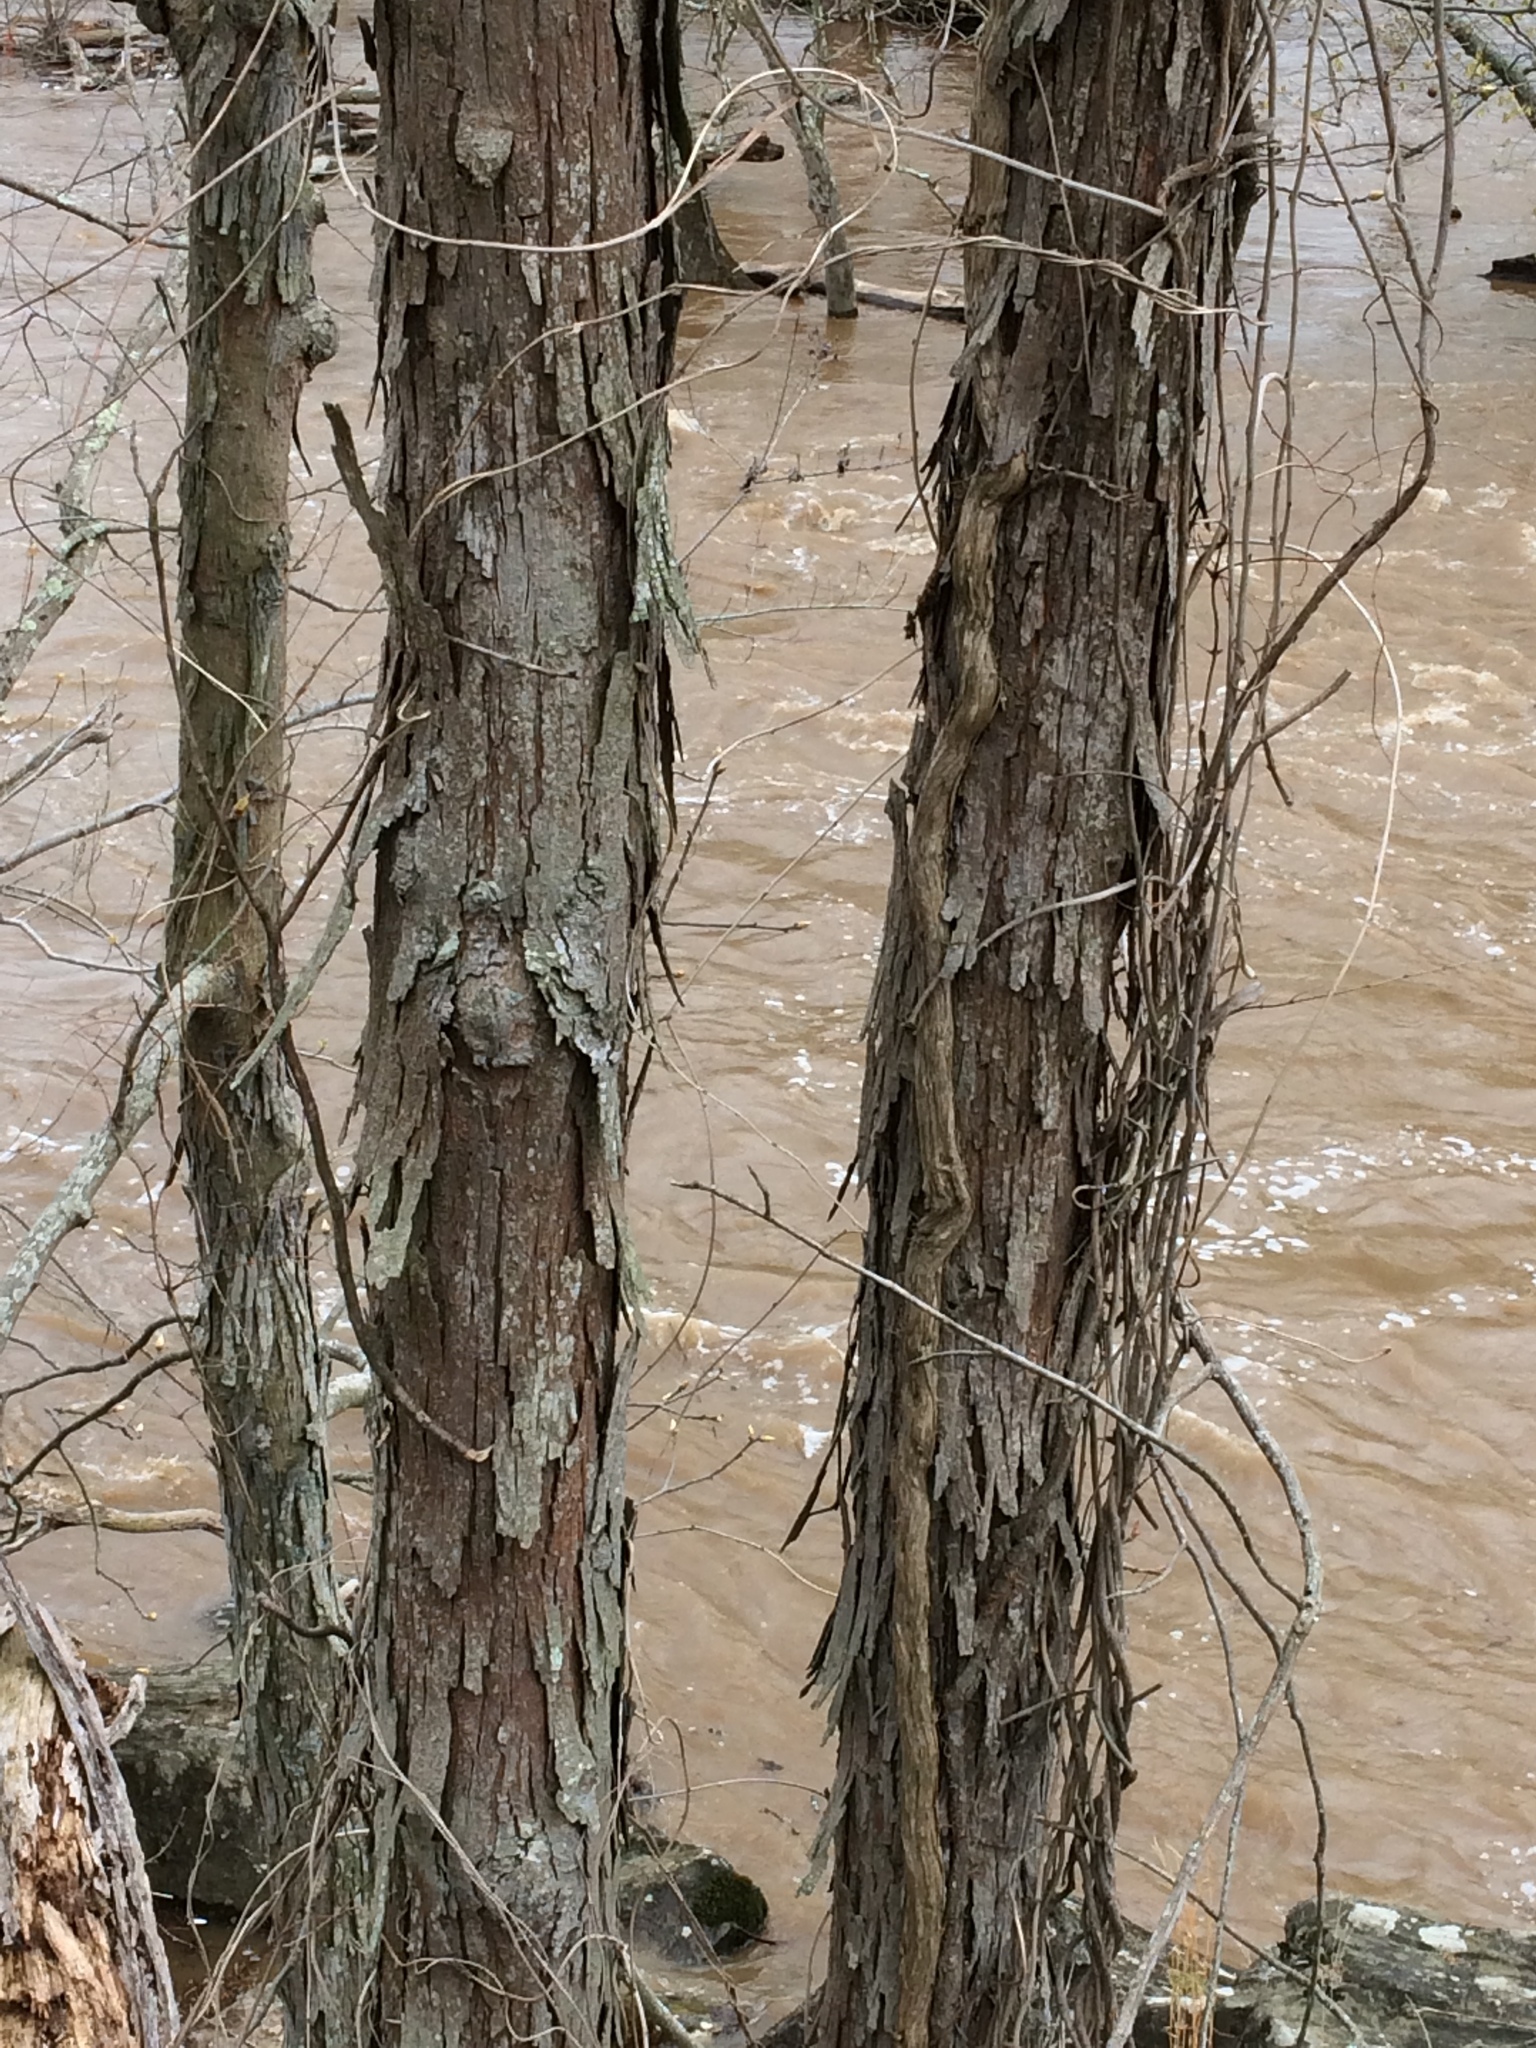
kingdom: Plantae
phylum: Tracheophyta
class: Magnoliopsida
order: Fagales
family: Juglandaceae
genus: Carya
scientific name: Carya ovata
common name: Shagbark hickory
